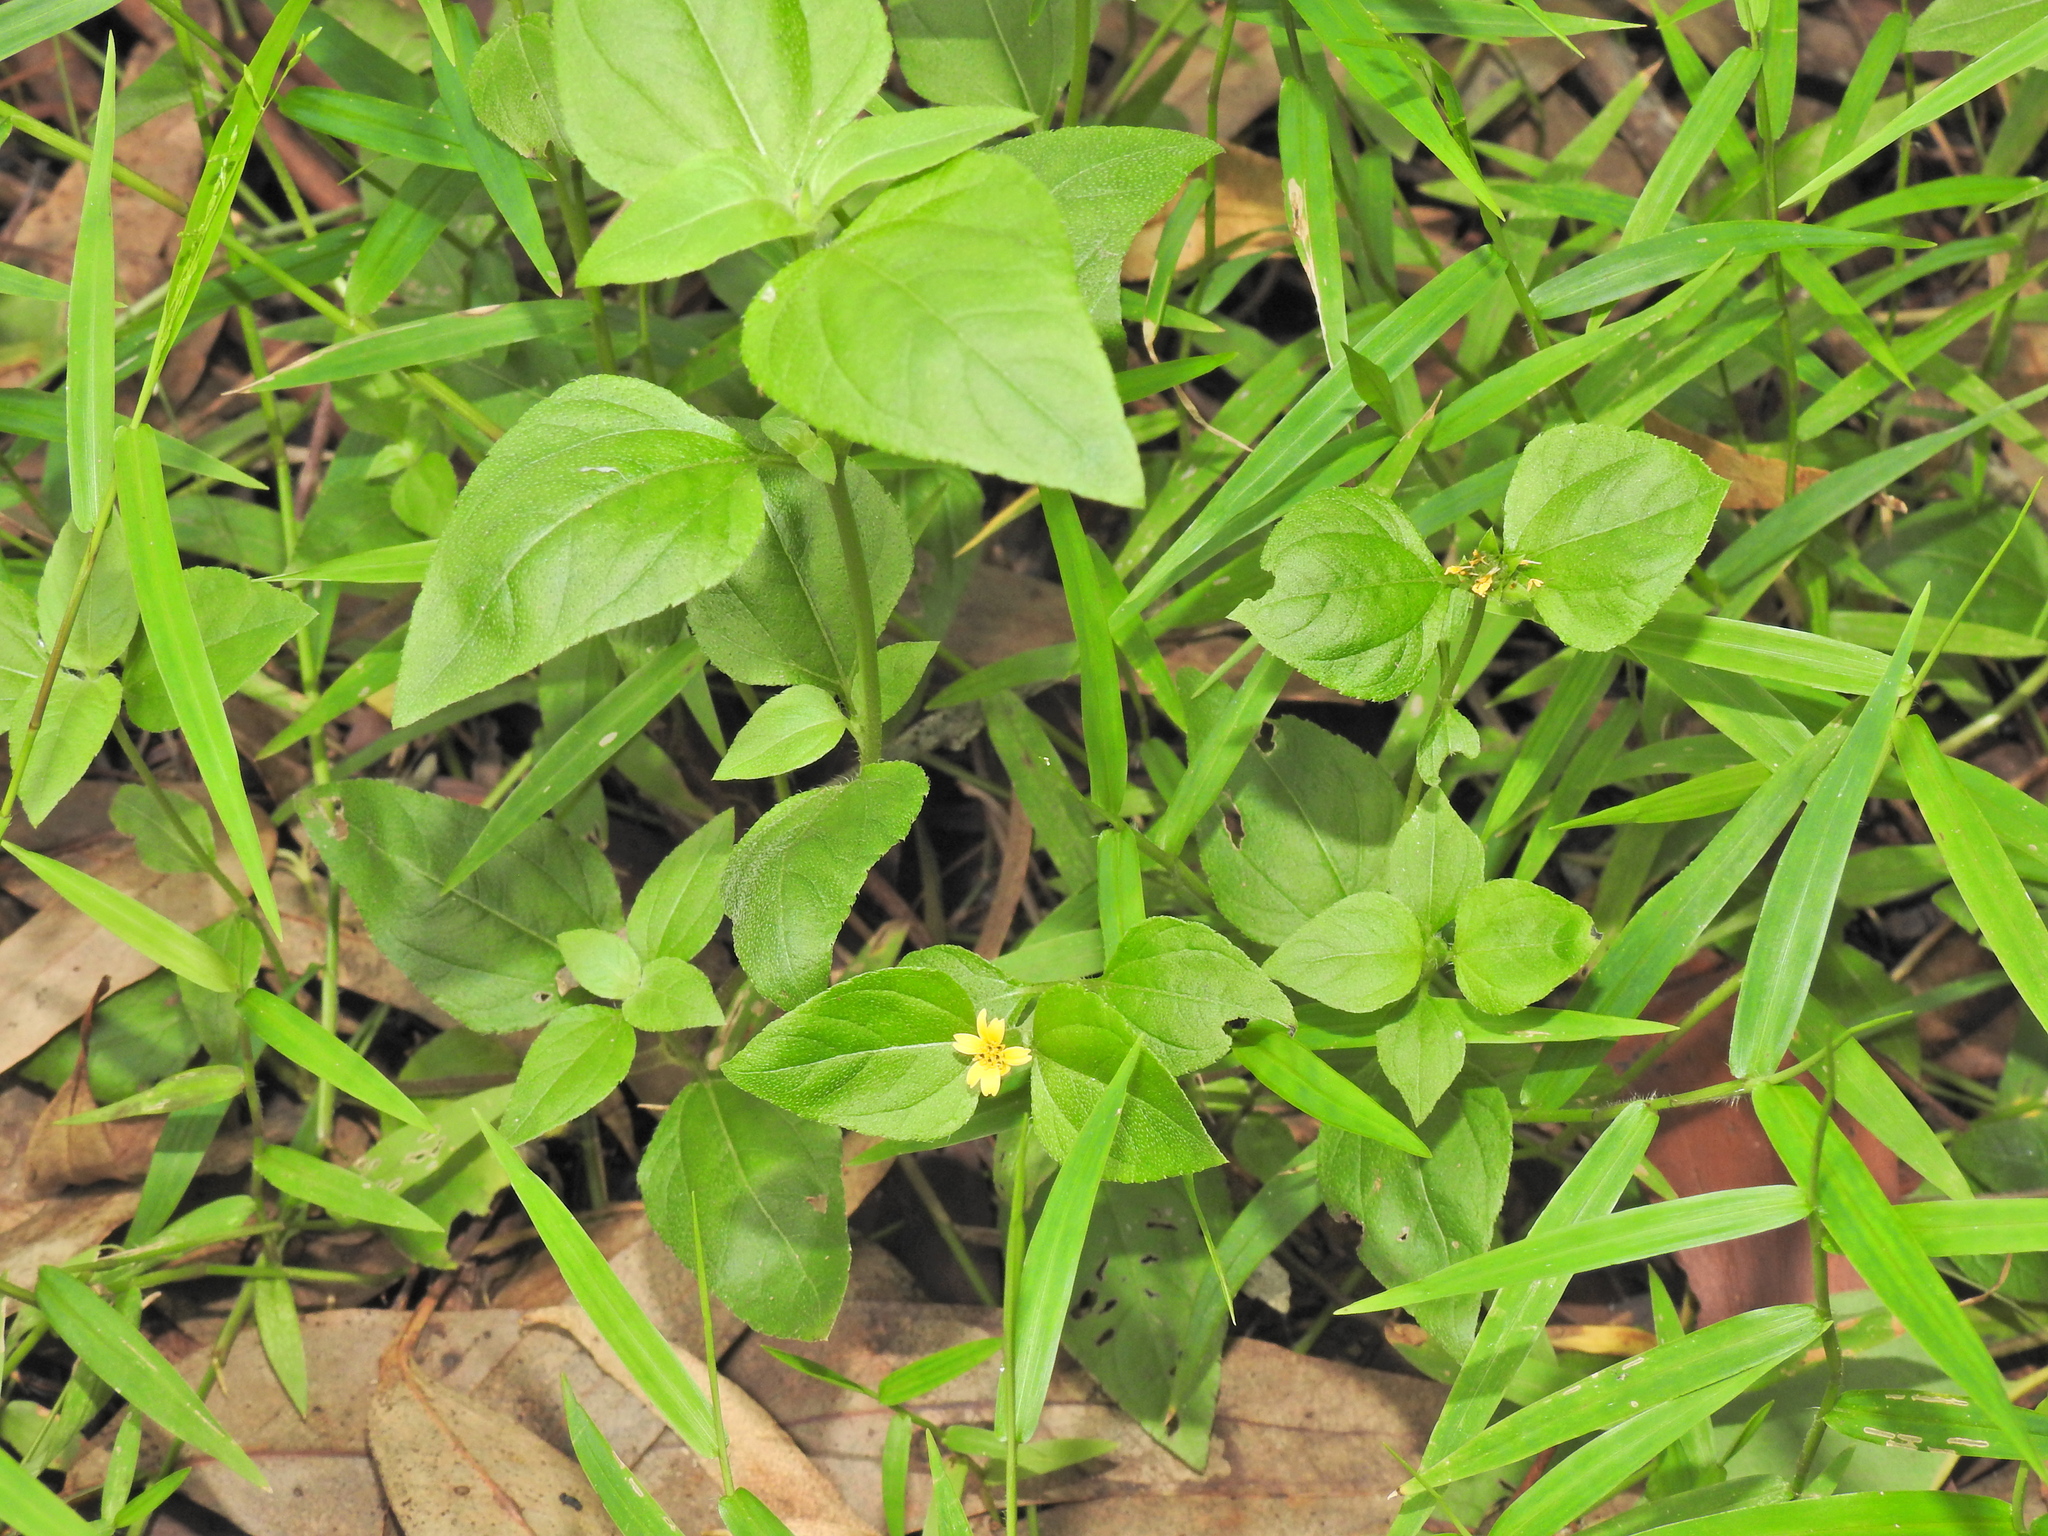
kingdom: Plantae
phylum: Tracheophyta
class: Magnoliopsida
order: Asterales
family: Asteraceae
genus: Calyptocarpus
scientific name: Calyptocarpus vialis
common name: Straggler daisy
